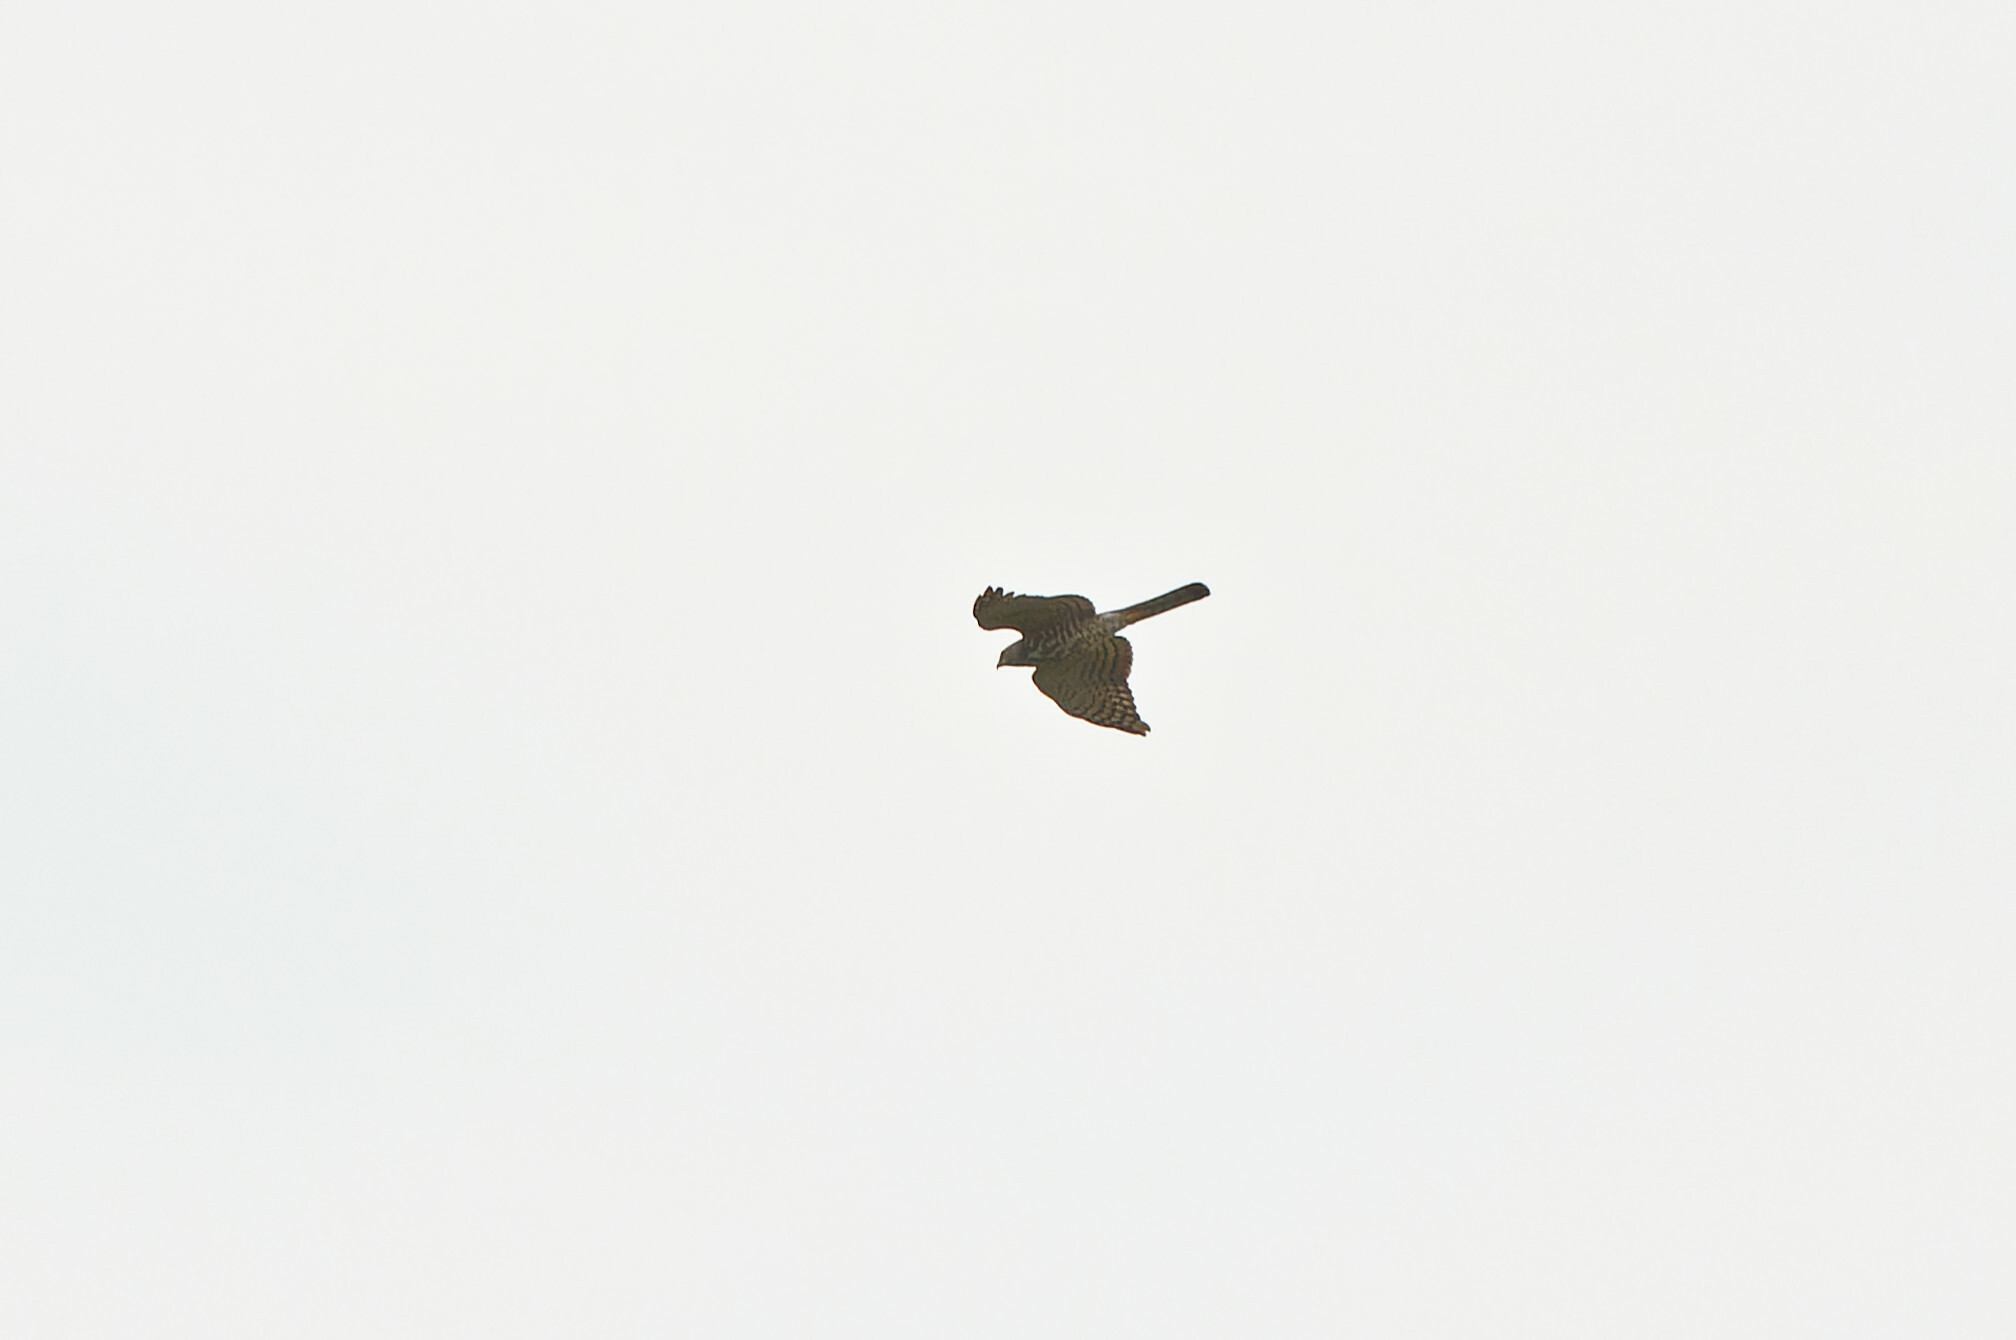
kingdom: Animalia
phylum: Chordata
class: Aves
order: Accipitriformes
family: Accipitridae
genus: Accipiter
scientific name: Accipiter badius
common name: Shikra
